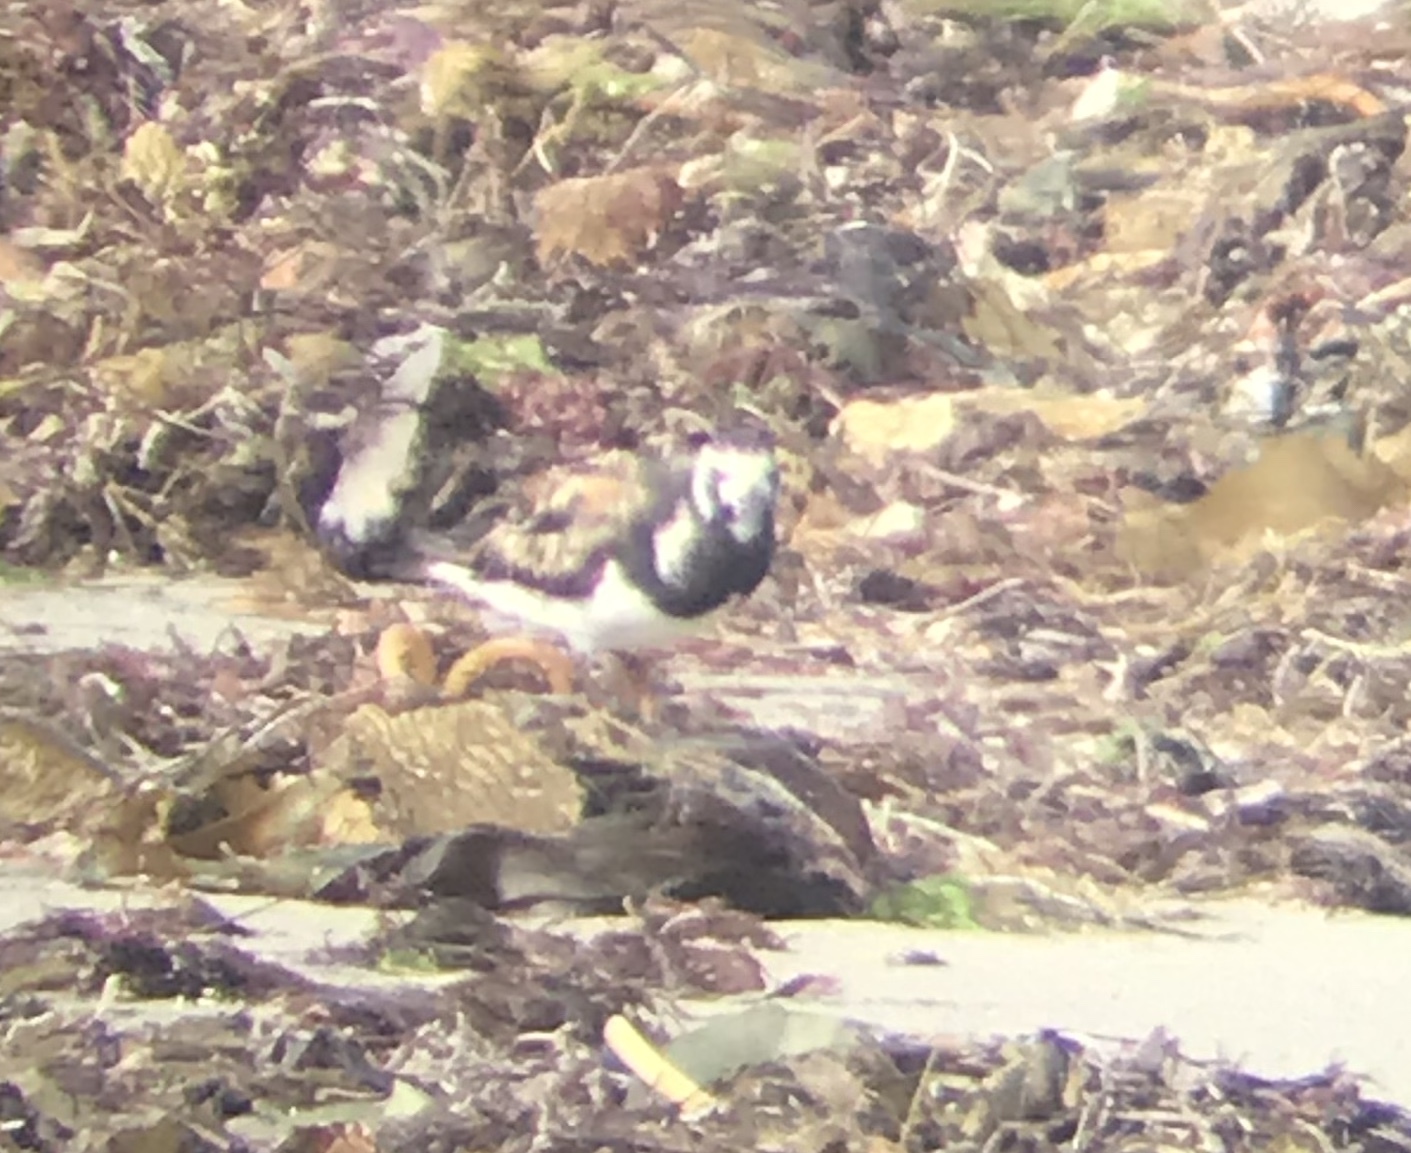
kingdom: Animalia
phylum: Chordata
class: Aves
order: Charadriiformes
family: Scolopacidae
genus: Arenaria
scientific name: Arenaria interpres
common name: Ruddy turnstone
